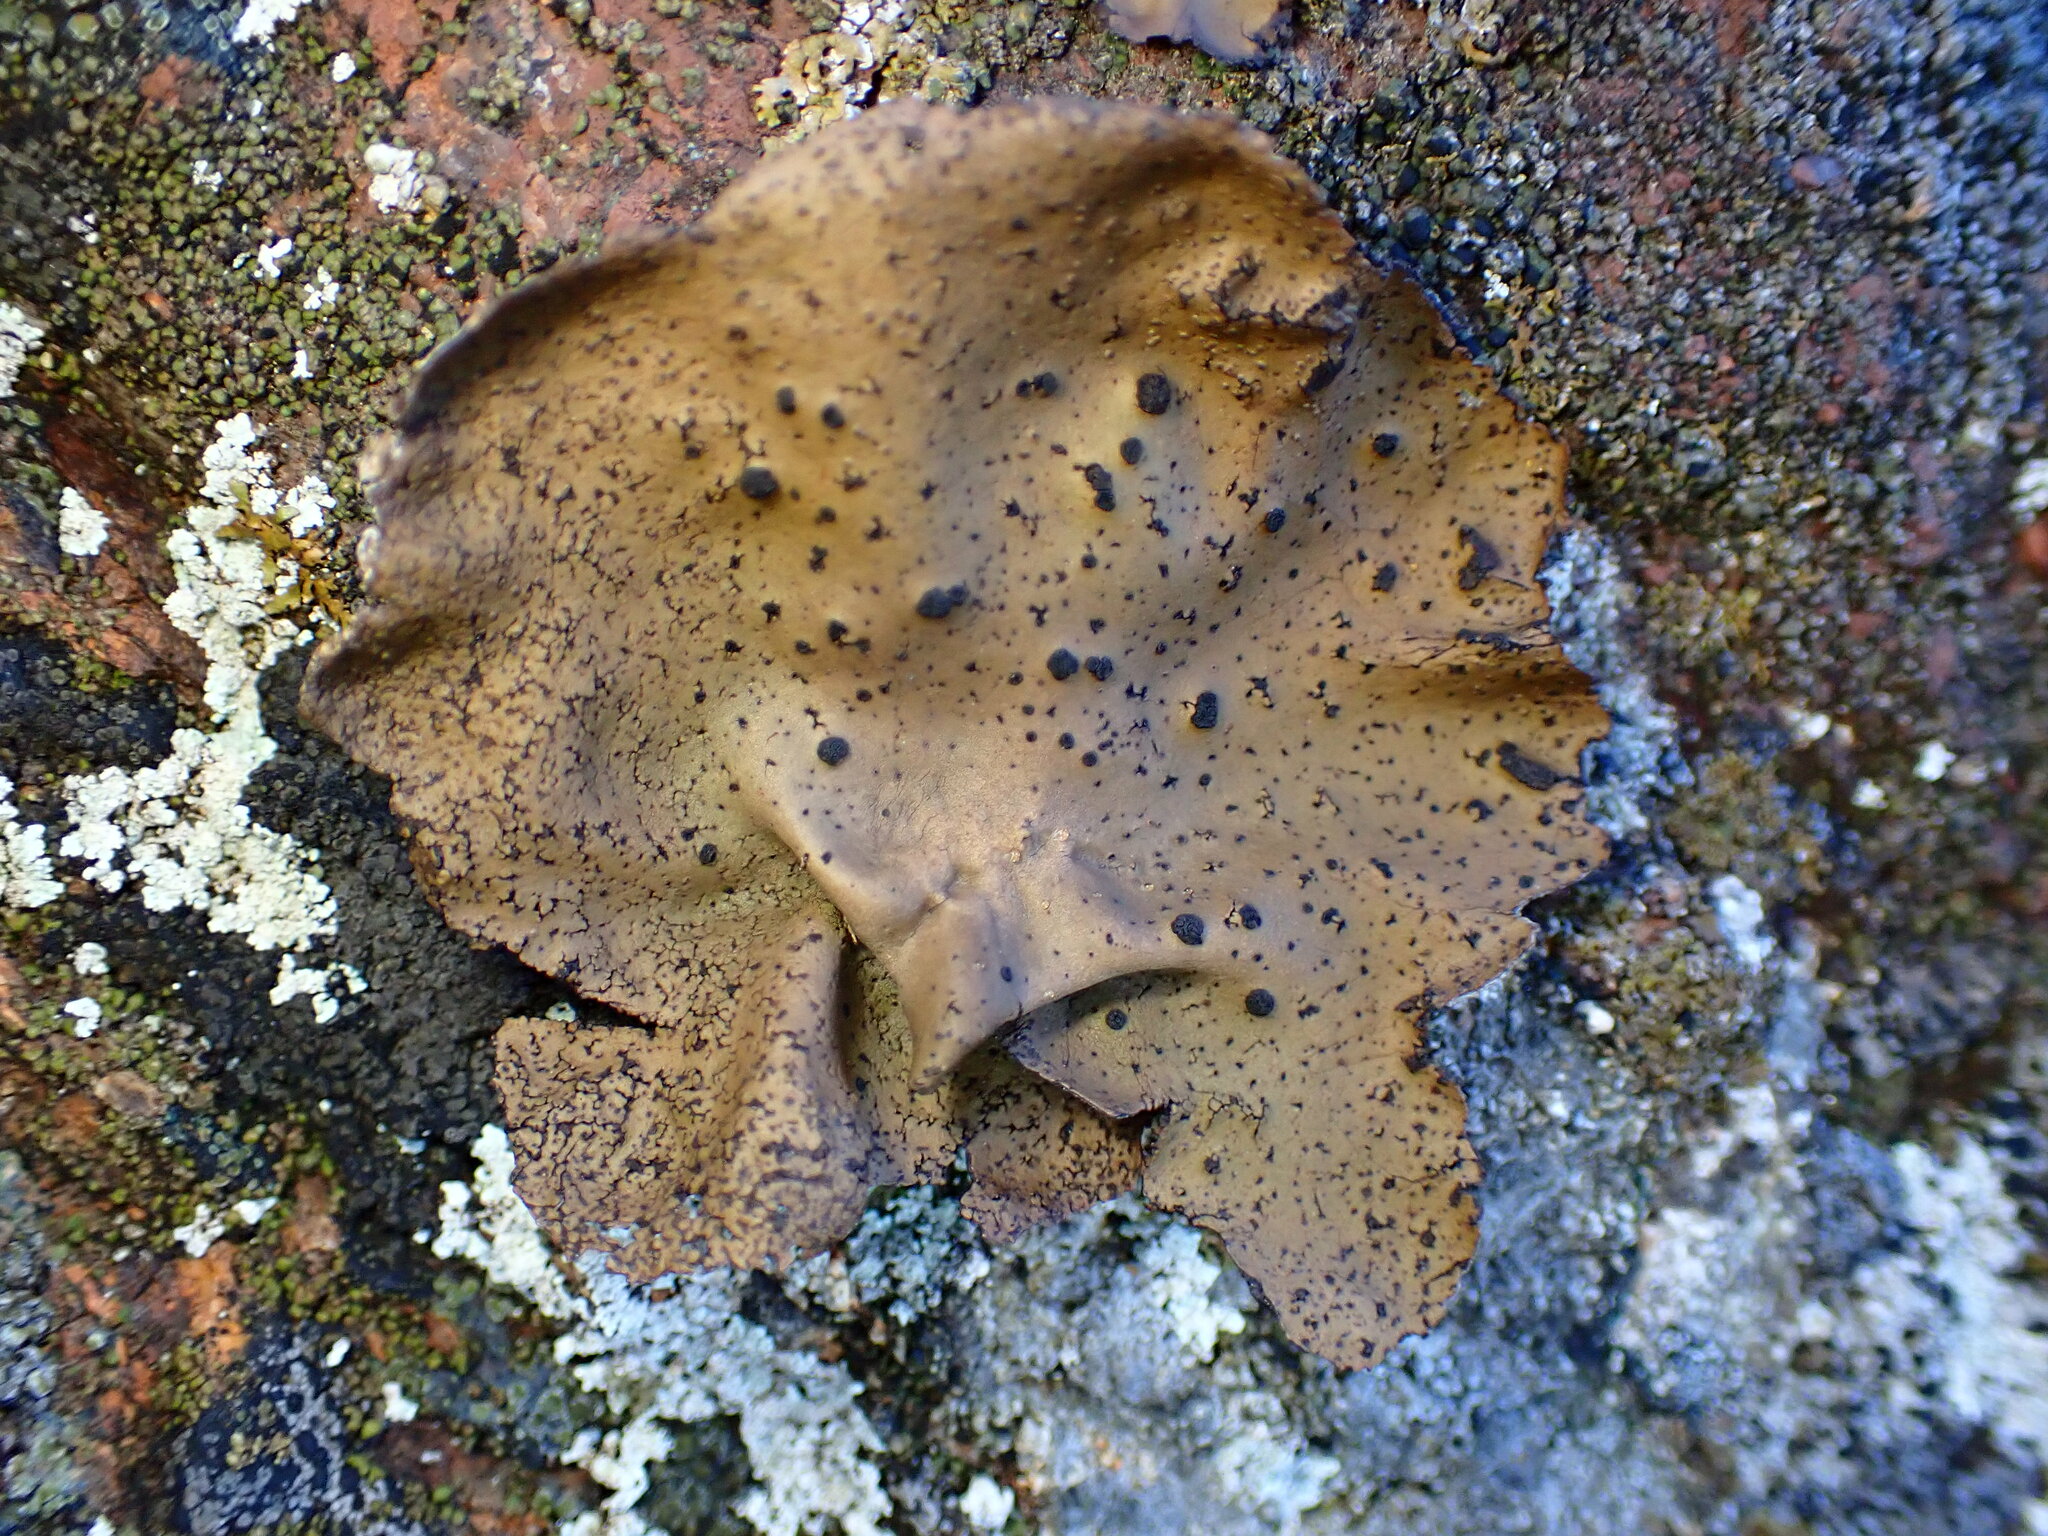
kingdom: Fungi
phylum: Ascomycota
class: Lecanoromycetes
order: Umbilicariales
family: Umbilicariaceae
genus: Umbilicaria
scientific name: Umbilicaria polyphylla
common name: Petalled rocktripe lichen
